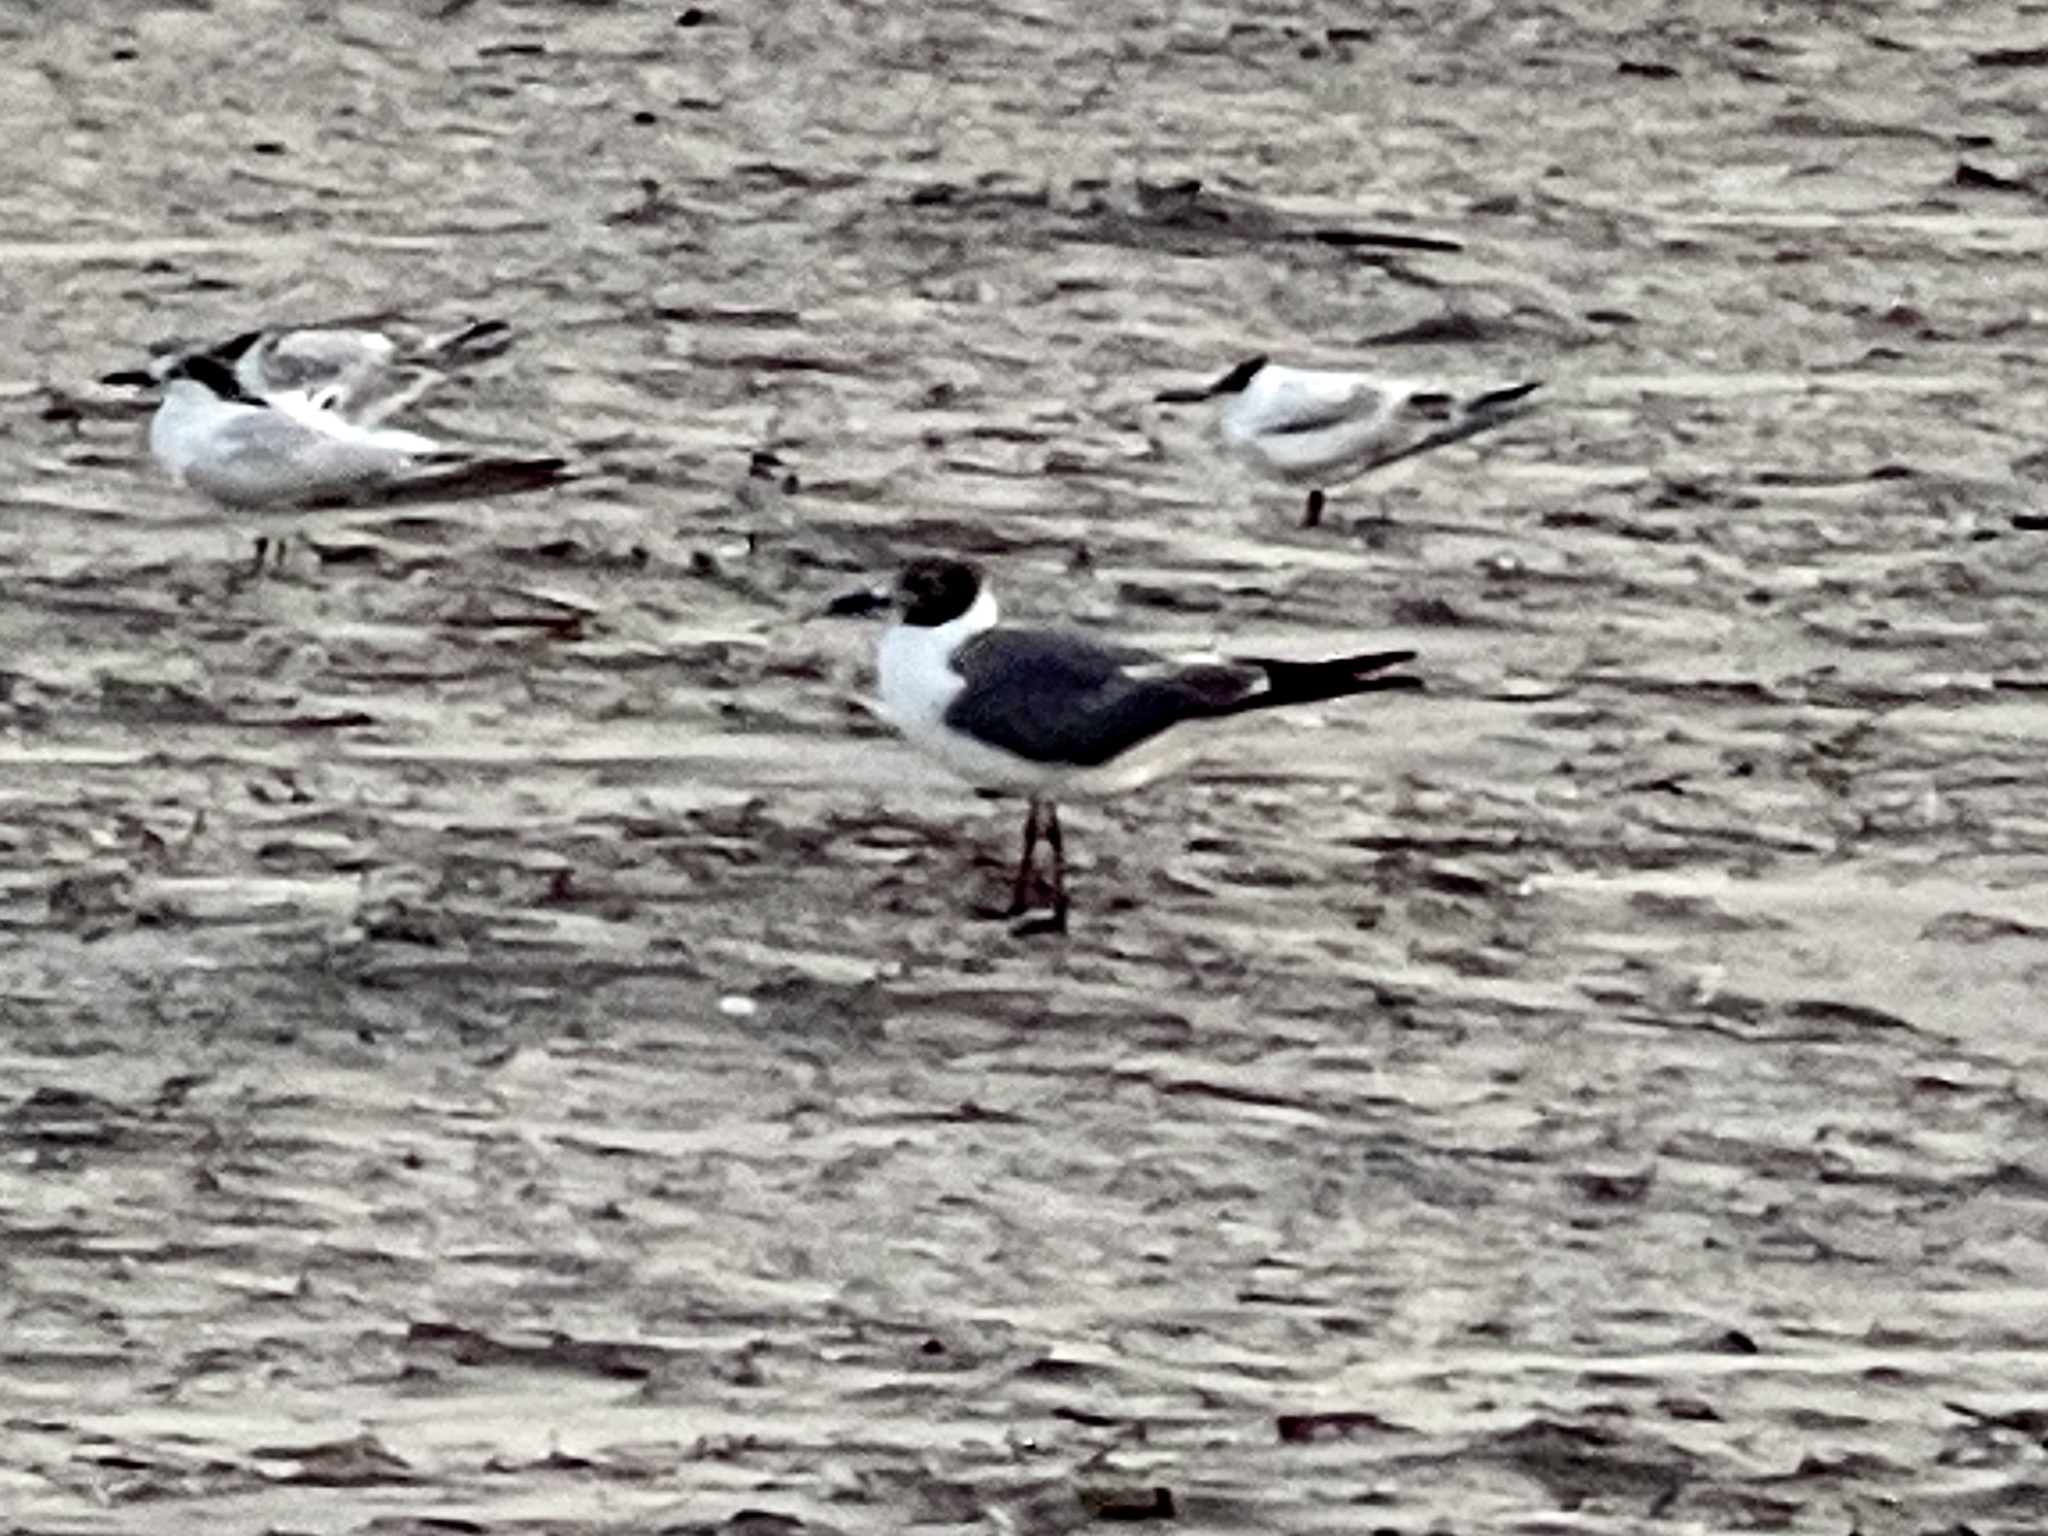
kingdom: Animalia
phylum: Chordata
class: Aves
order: Charadriiformes
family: Laridae
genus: Leucophaeus
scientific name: Leucophaeus atricilla
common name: Laughing gull
